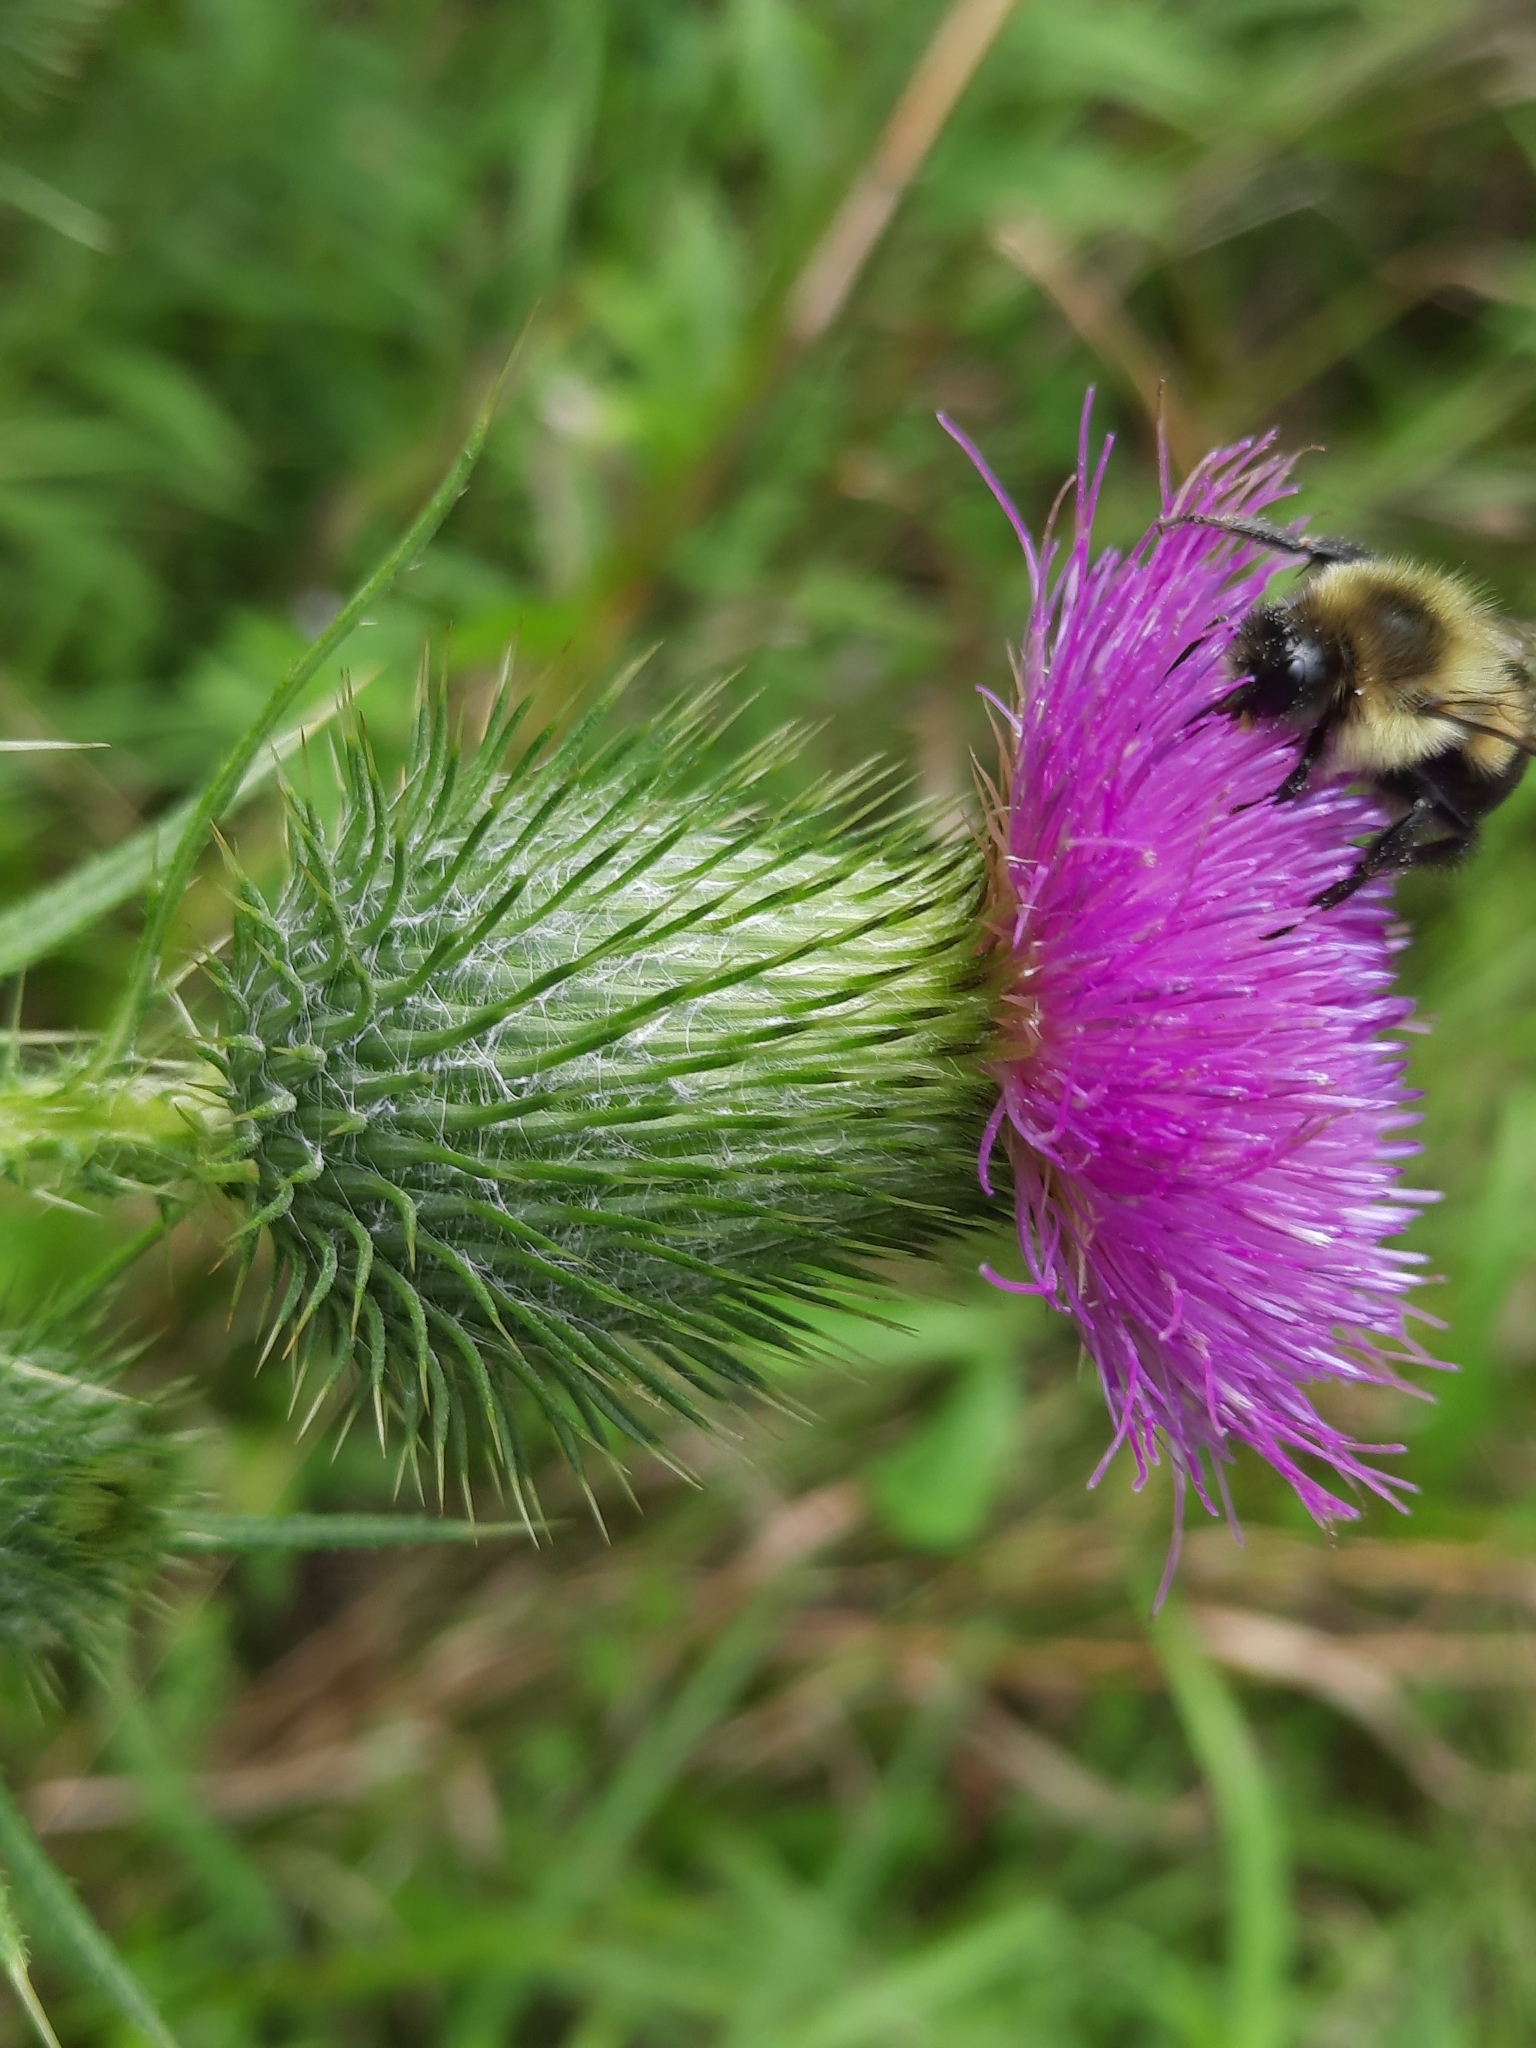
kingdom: Plantae
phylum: Tracheophyta
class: Magnoliopsida
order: Asterales
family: Asteraceae
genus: Cirsium
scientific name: Cirsium vulgare
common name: Bull thistle
